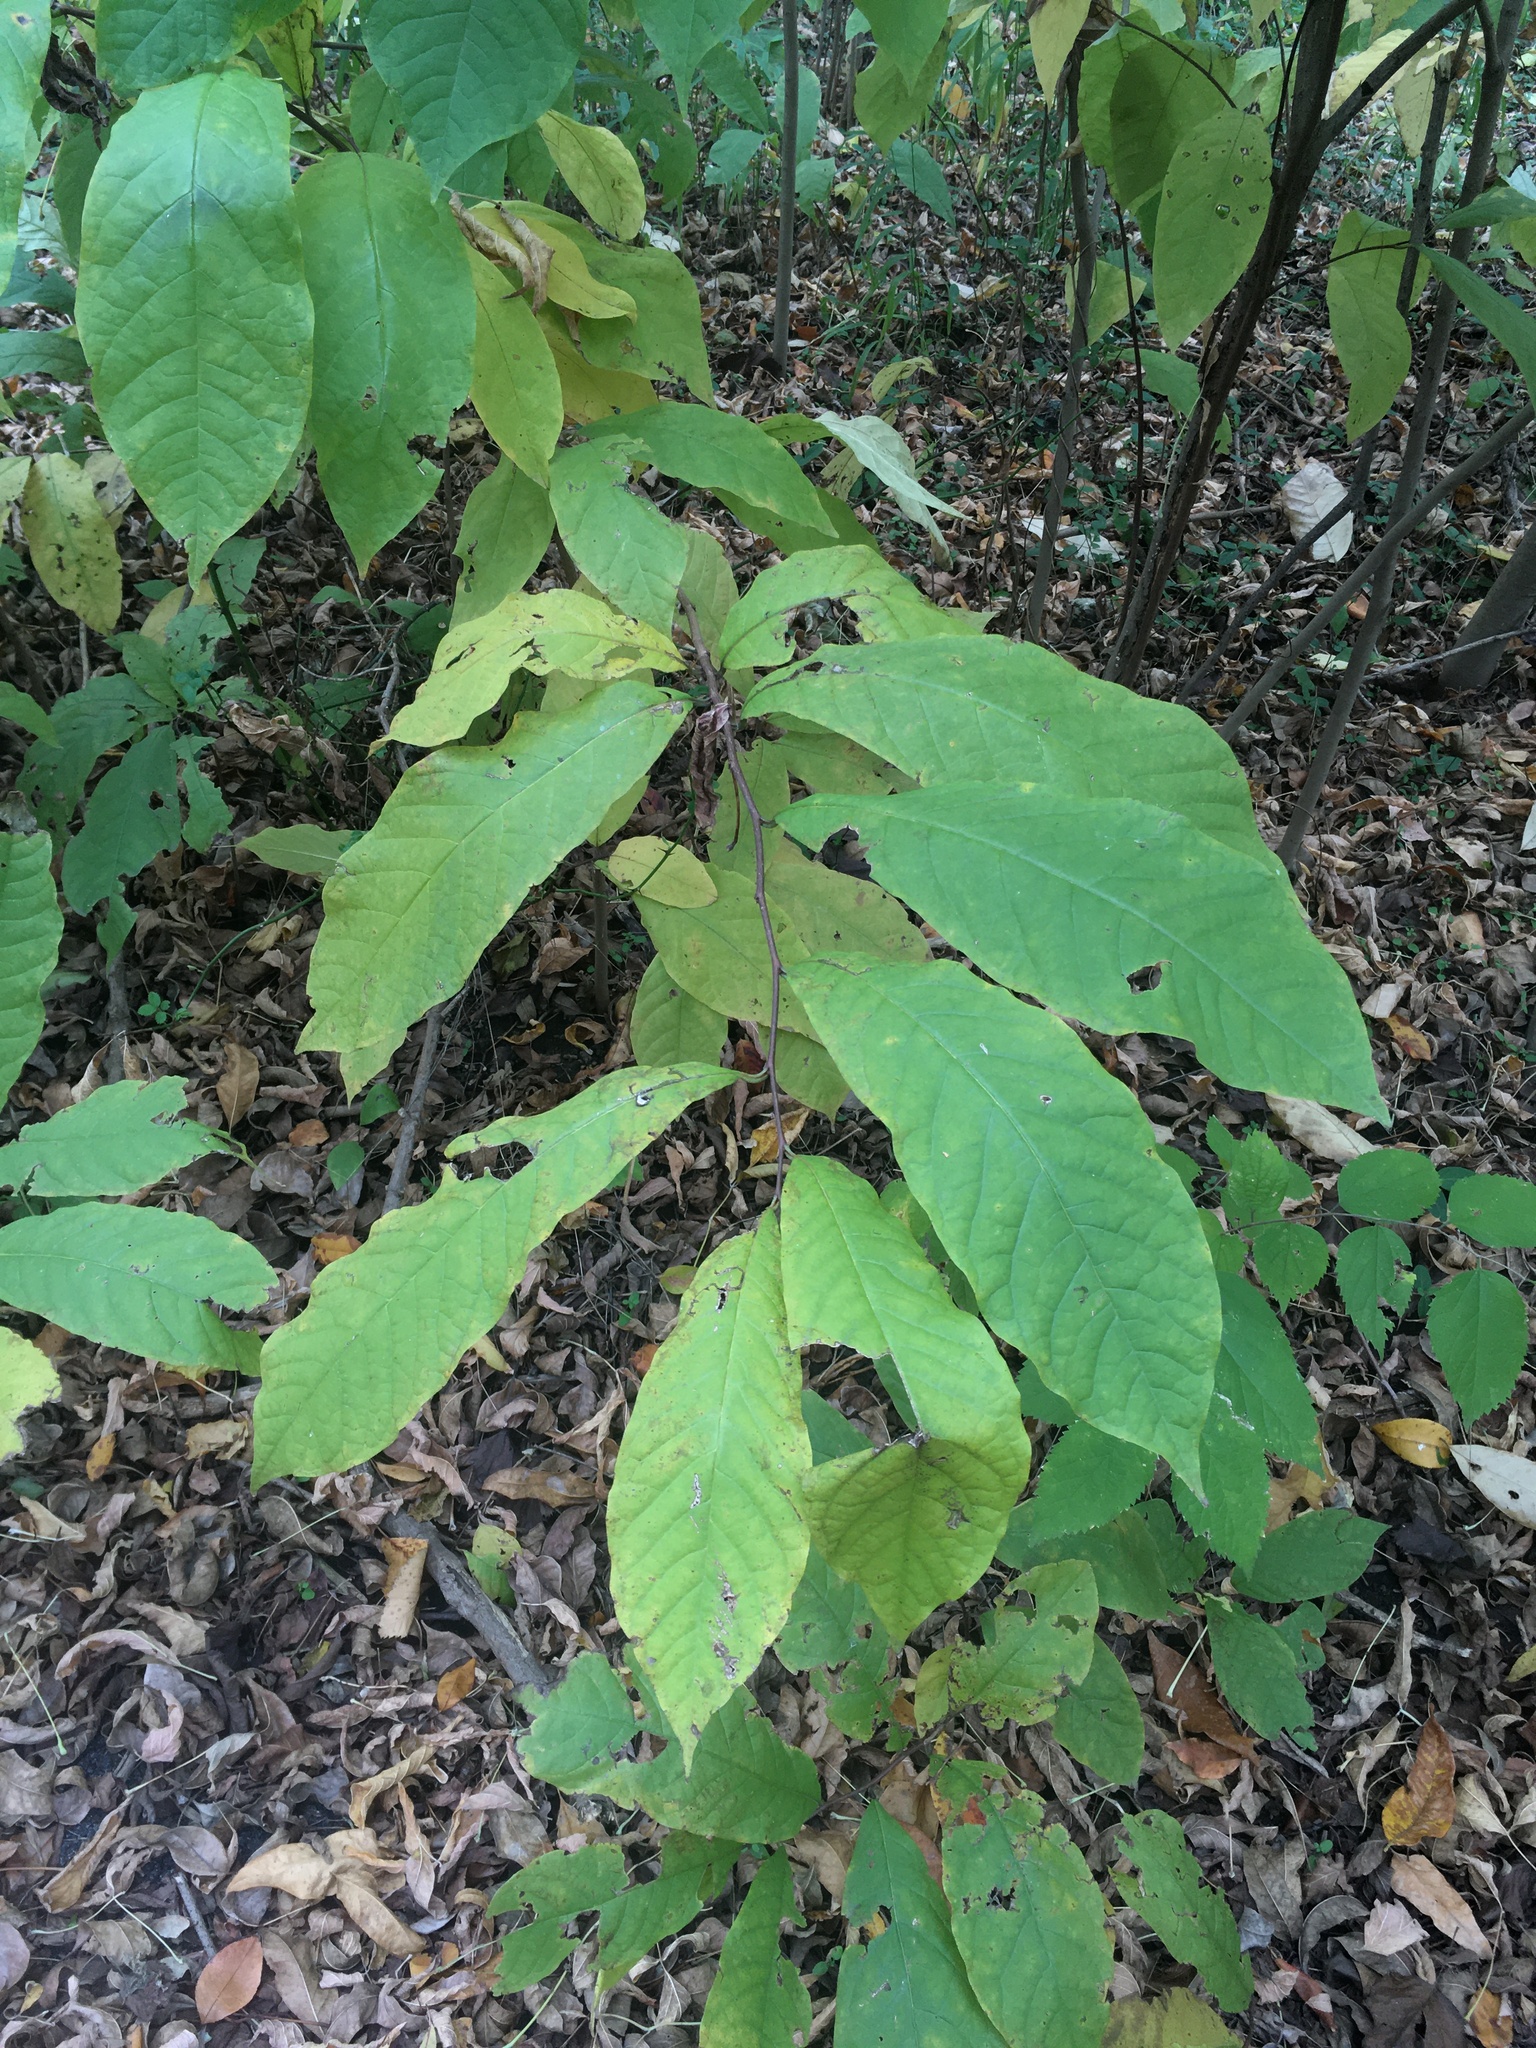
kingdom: Plantae
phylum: Tracheophyta
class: Magnoliopsida
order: Magnoliales
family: Annonaceae
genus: Asimina
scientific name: Asimina triloba
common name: Dog-banana
